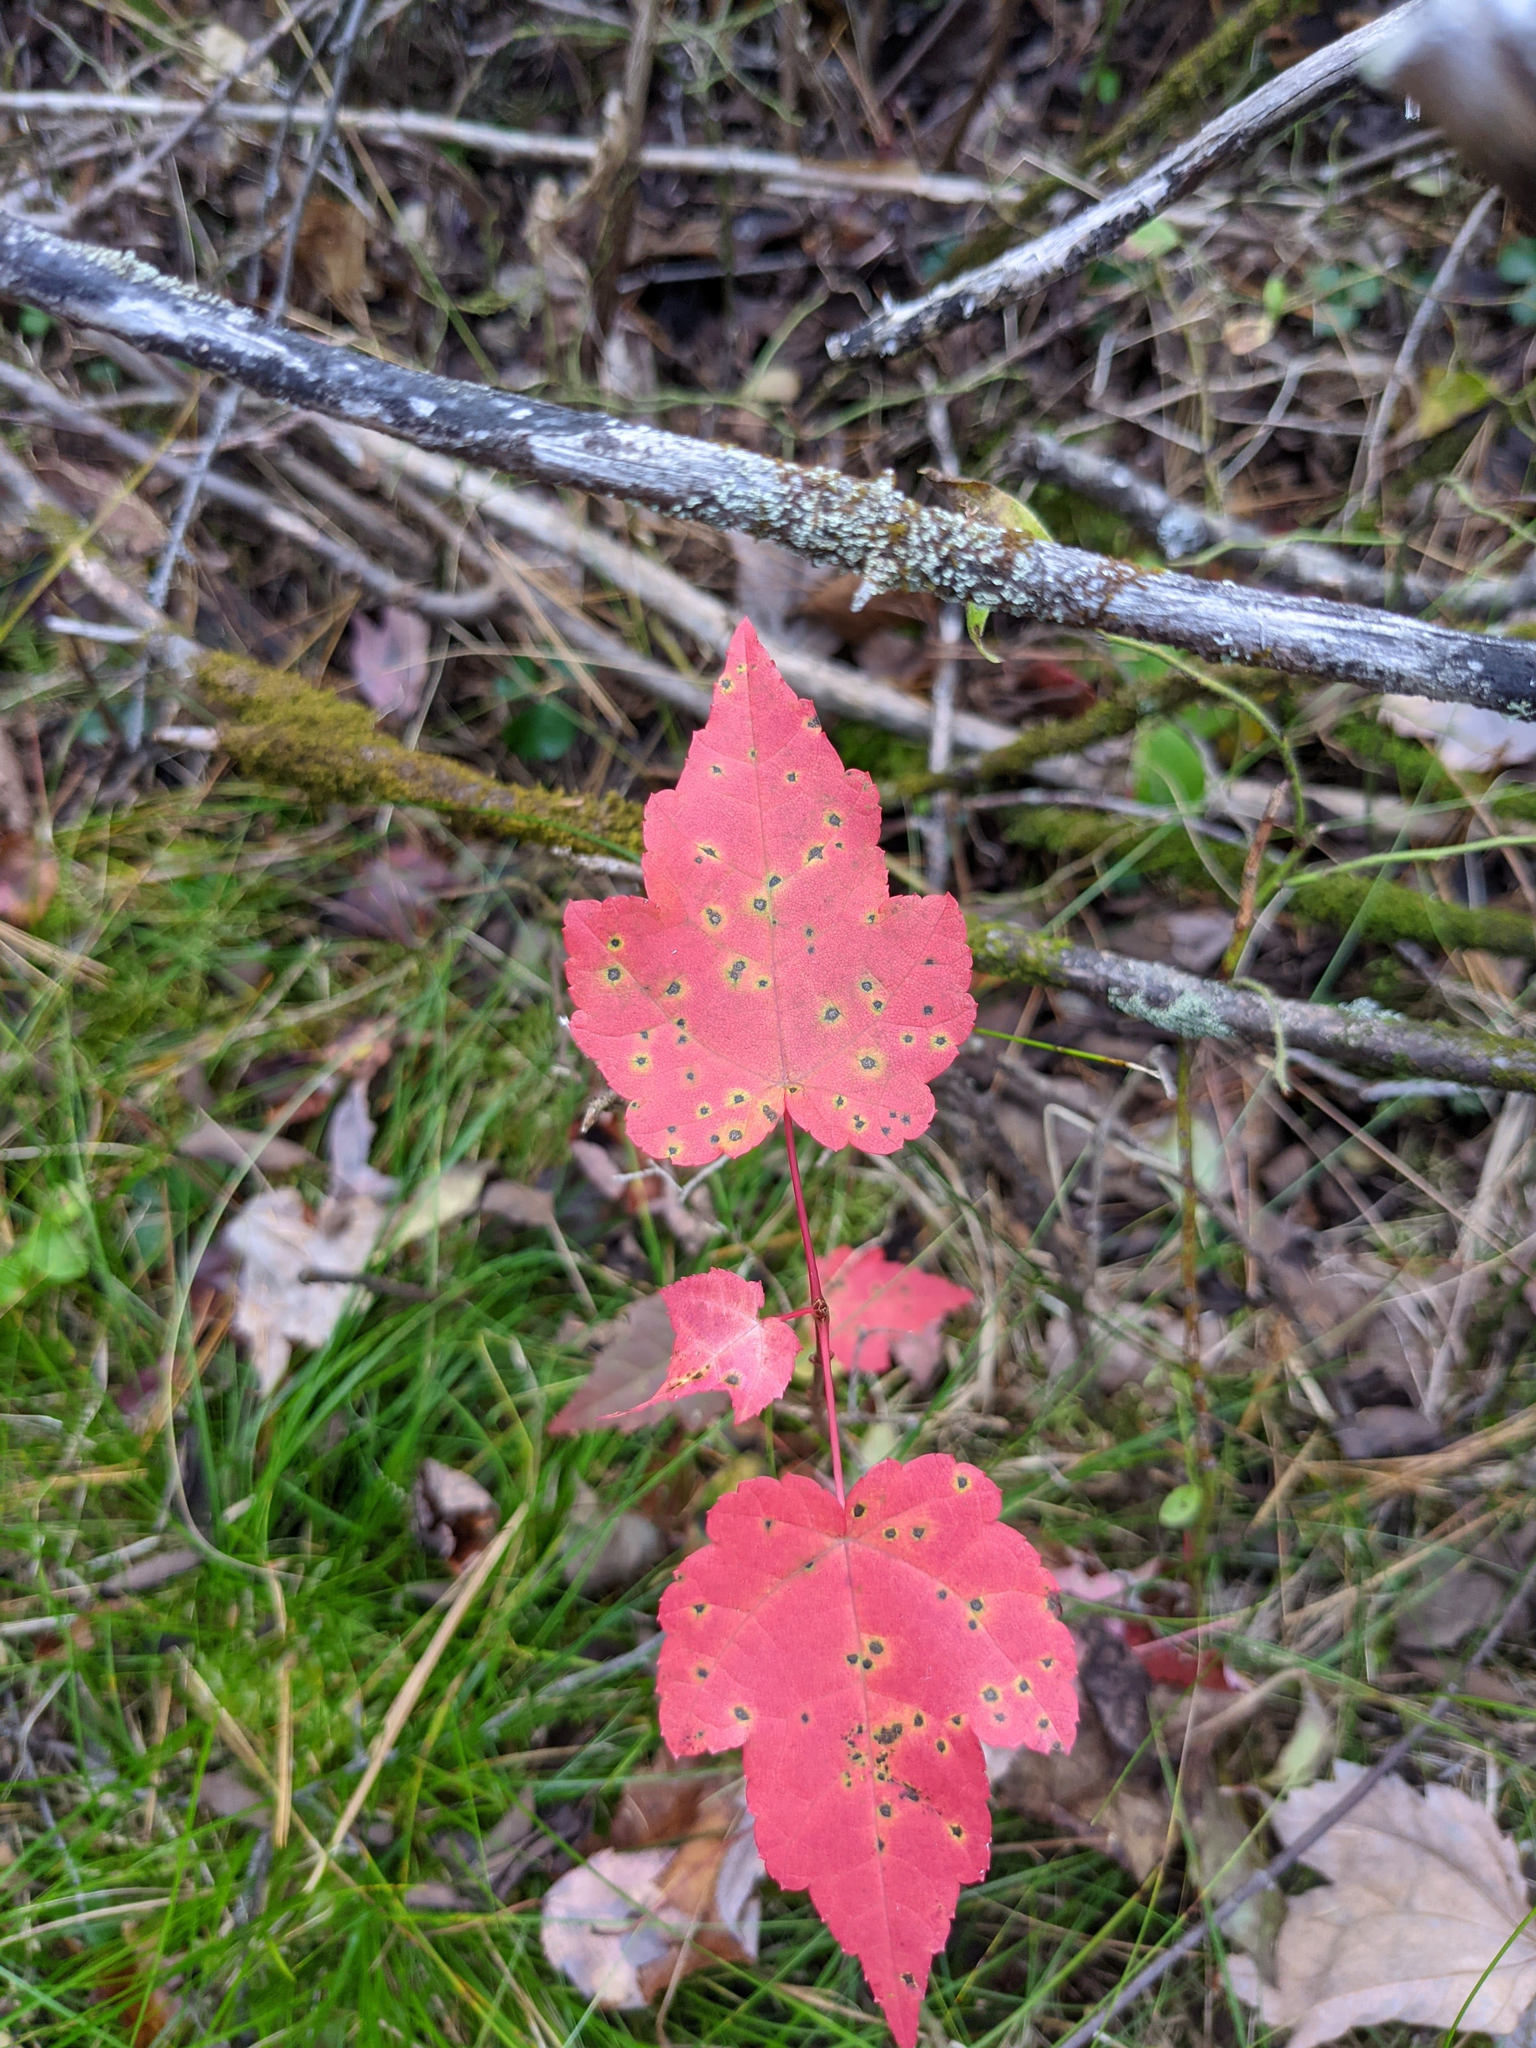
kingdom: Plantae
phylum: Tracheophyta
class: Magnoliopsida
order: Sapindales
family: Sapindaceae
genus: Acer
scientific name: Acer rubrum
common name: Red maple
